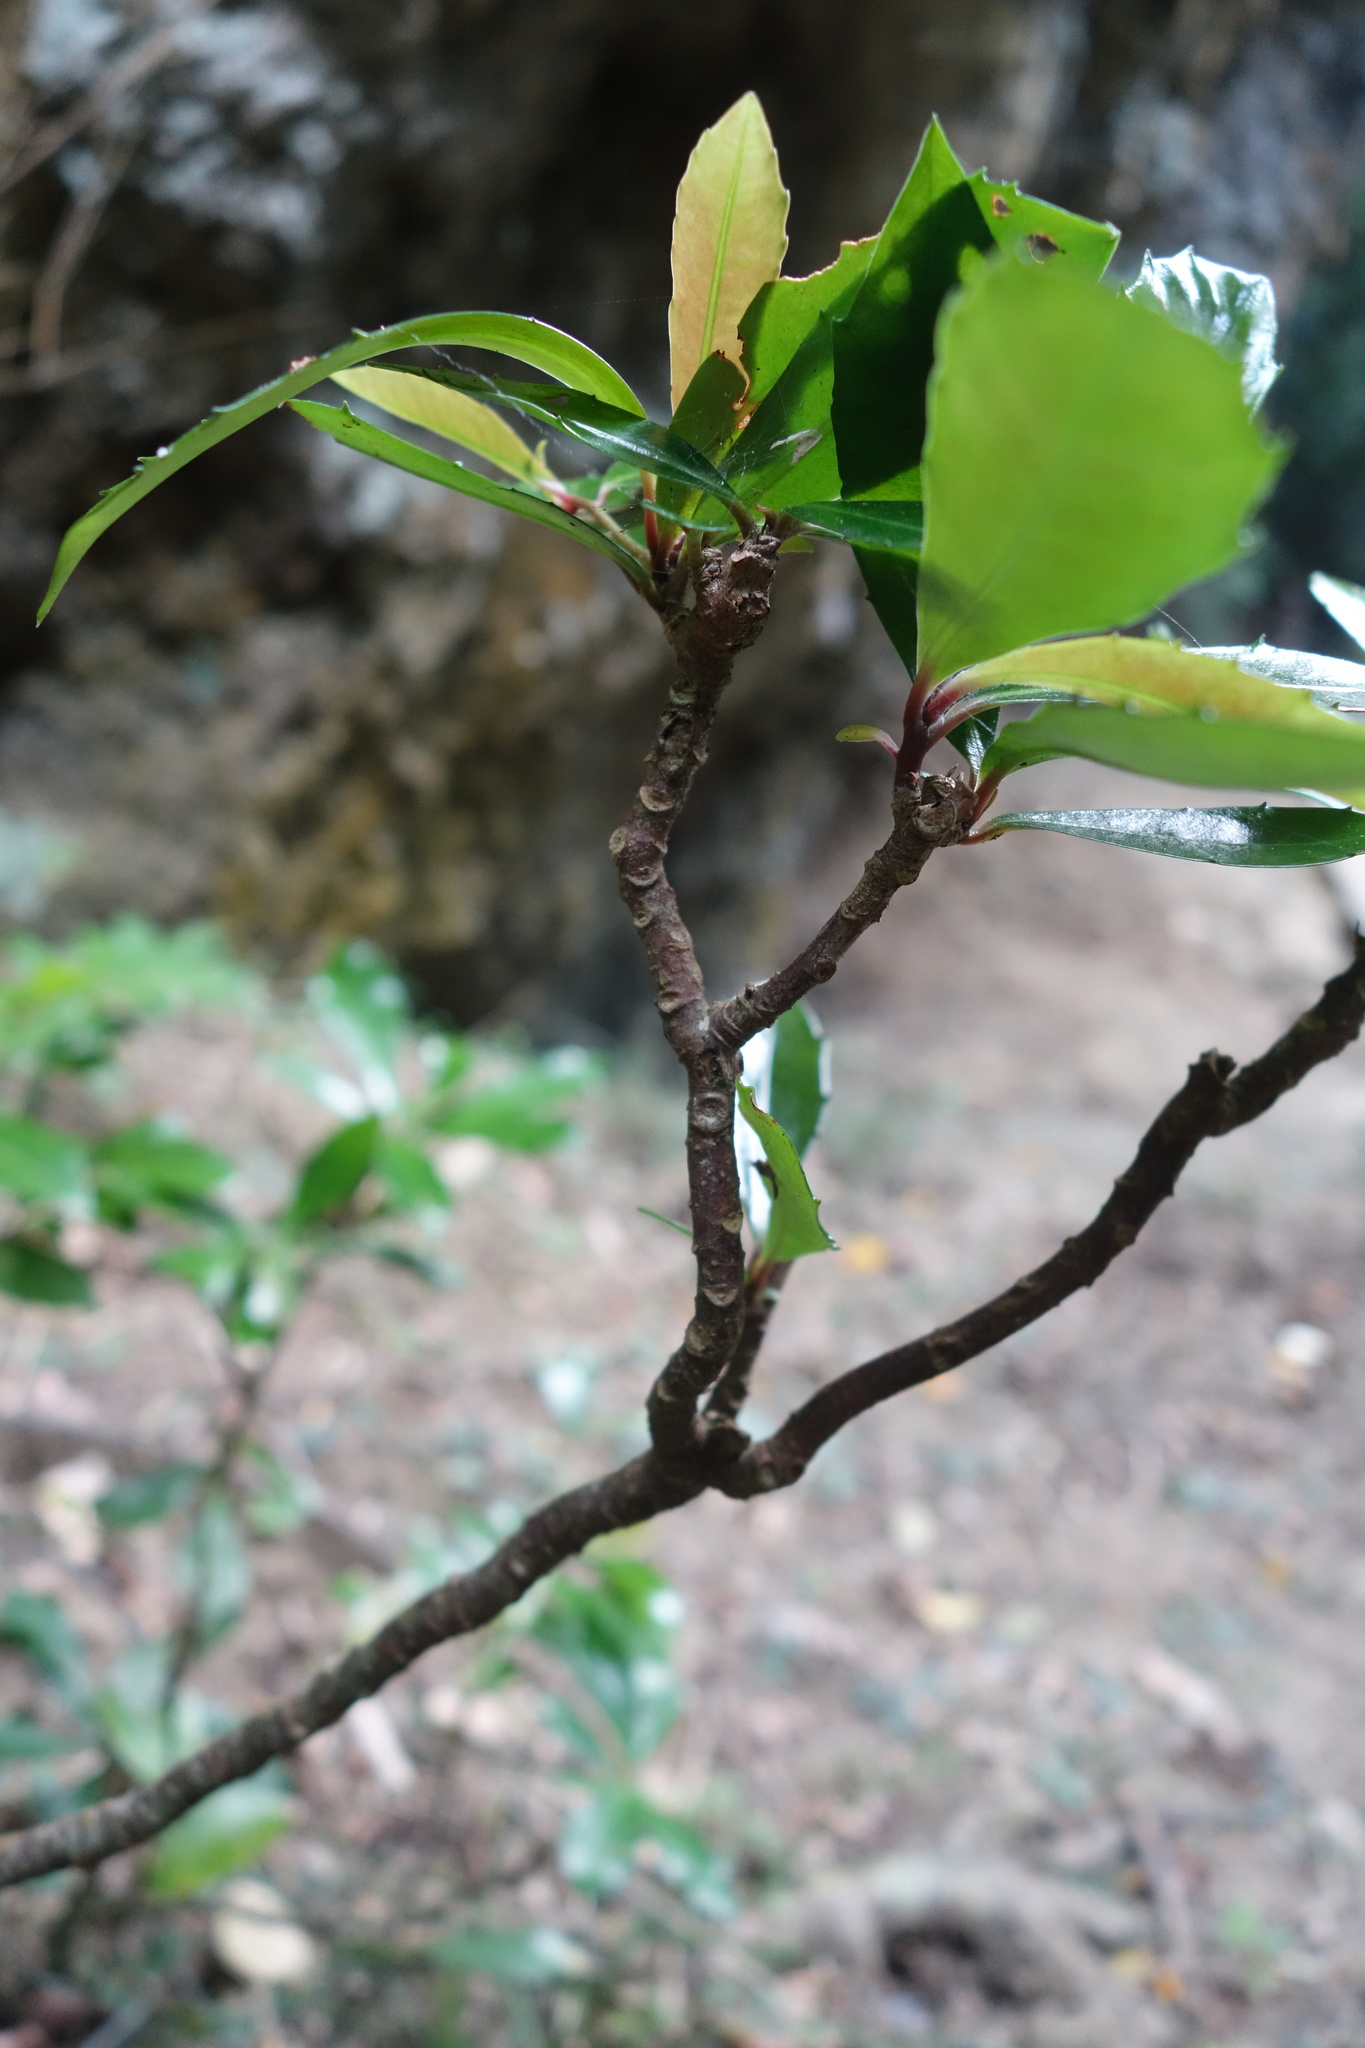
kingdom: Plantae
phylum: Tracheophyta
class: Magnoliopsida
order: Ericales
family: Primulaceae
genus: Ardisia
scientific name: Ardisia cornudentata
